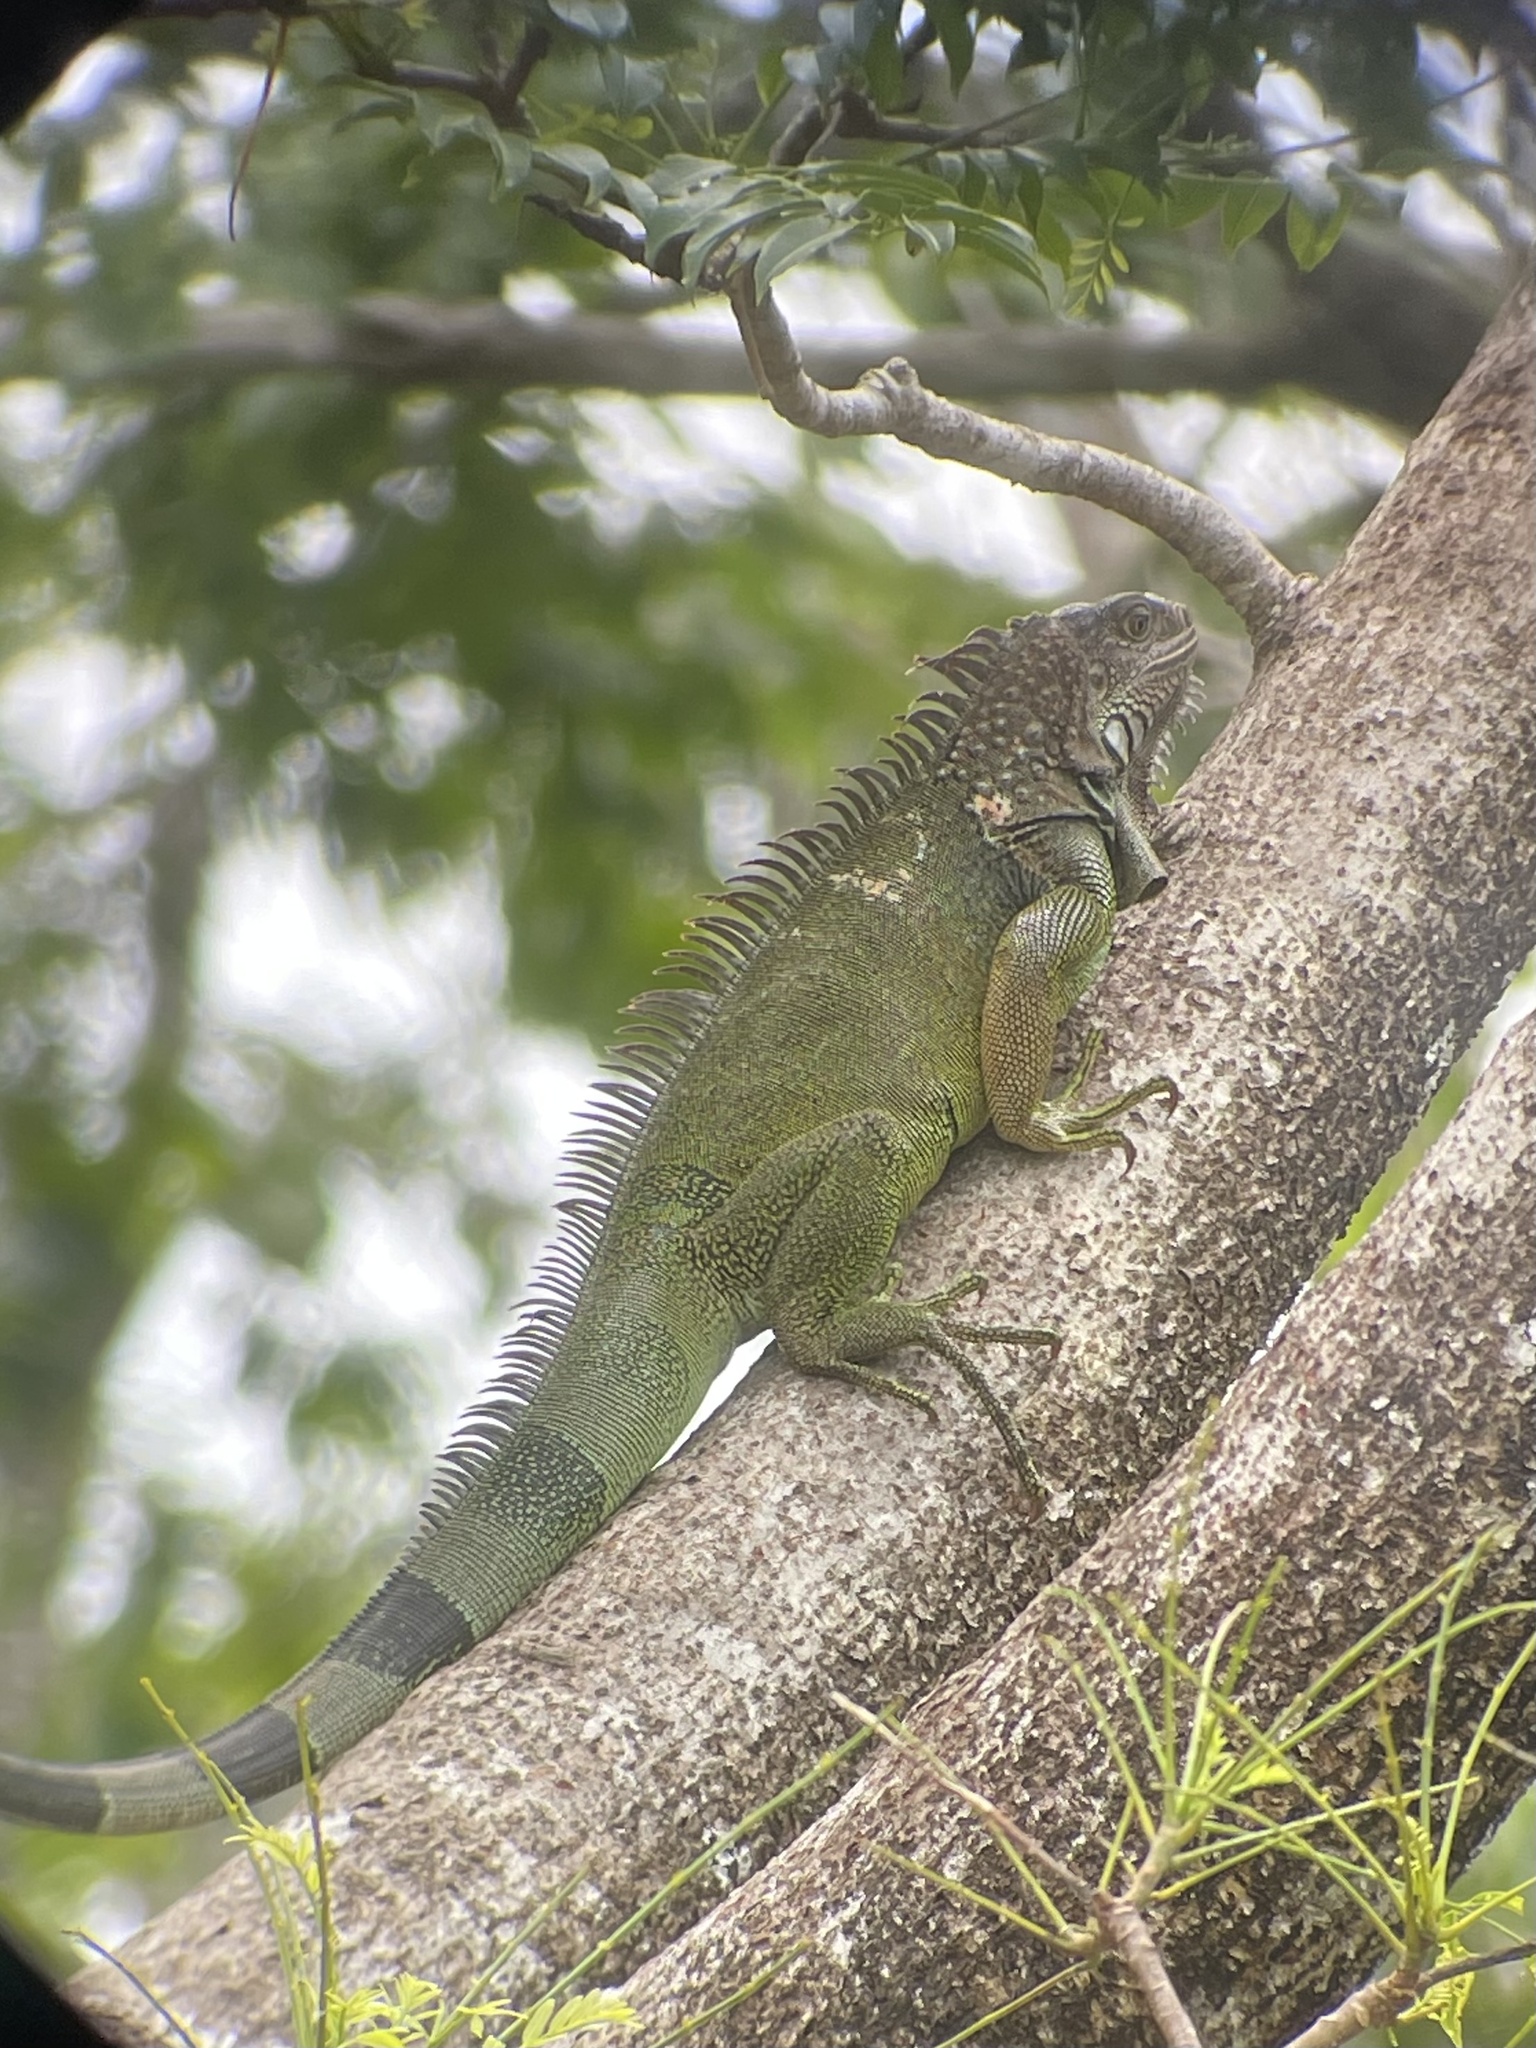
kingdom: Animalia
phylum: Chordata
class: Squamata
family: Iguanidae
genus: Iguana
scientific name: Iguana iguana
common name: Green iguana
